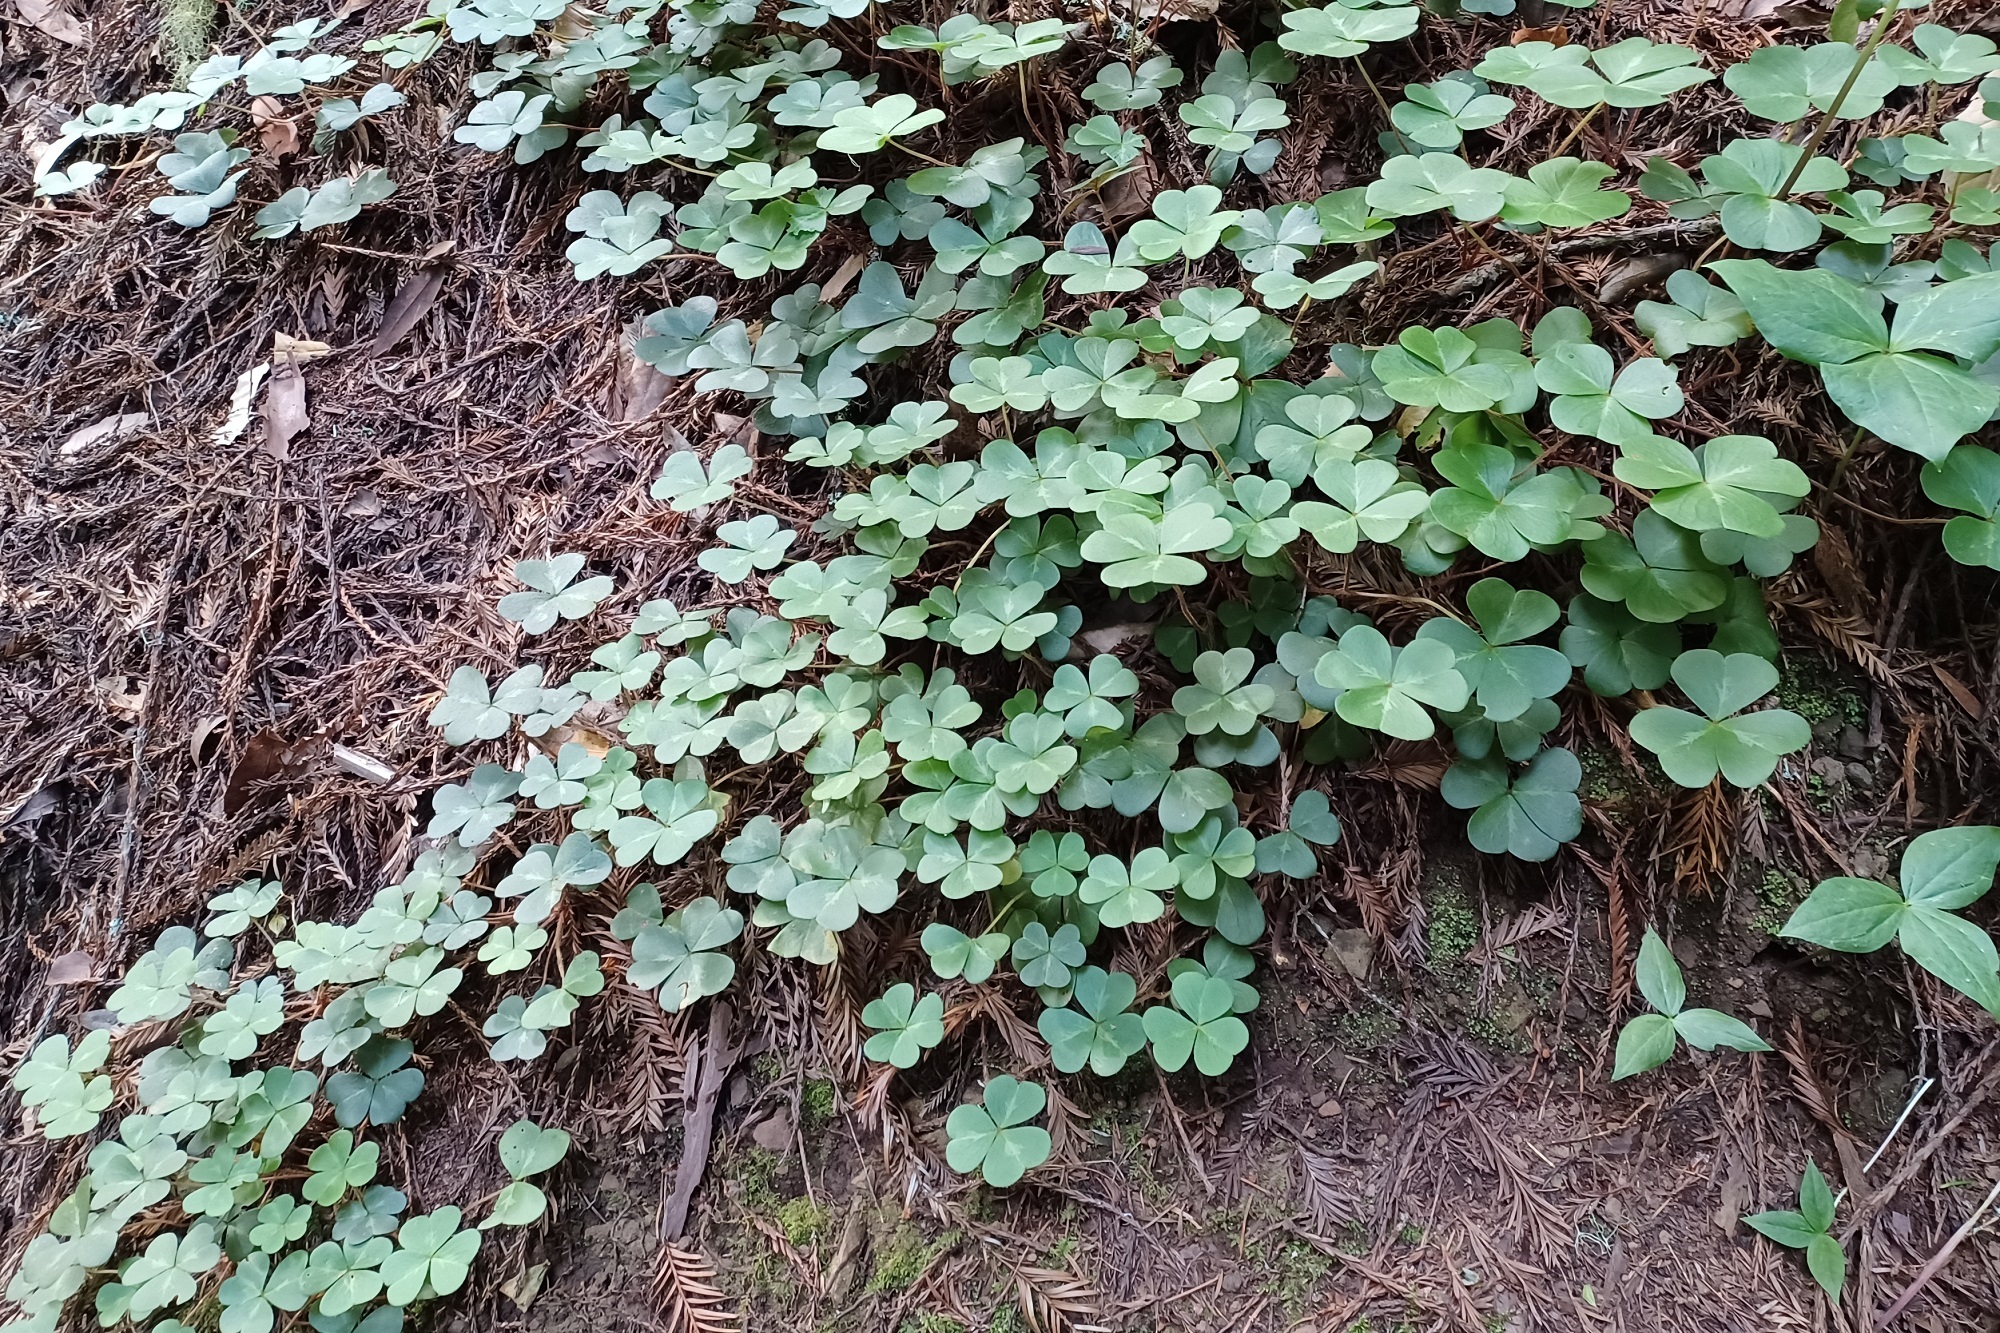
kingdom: Plantae
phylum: Tracheophyta
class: Magnoliopsida
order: Oxalidales
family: Oxalidaceae
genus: Oxalis
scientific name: Oxalis oregana
